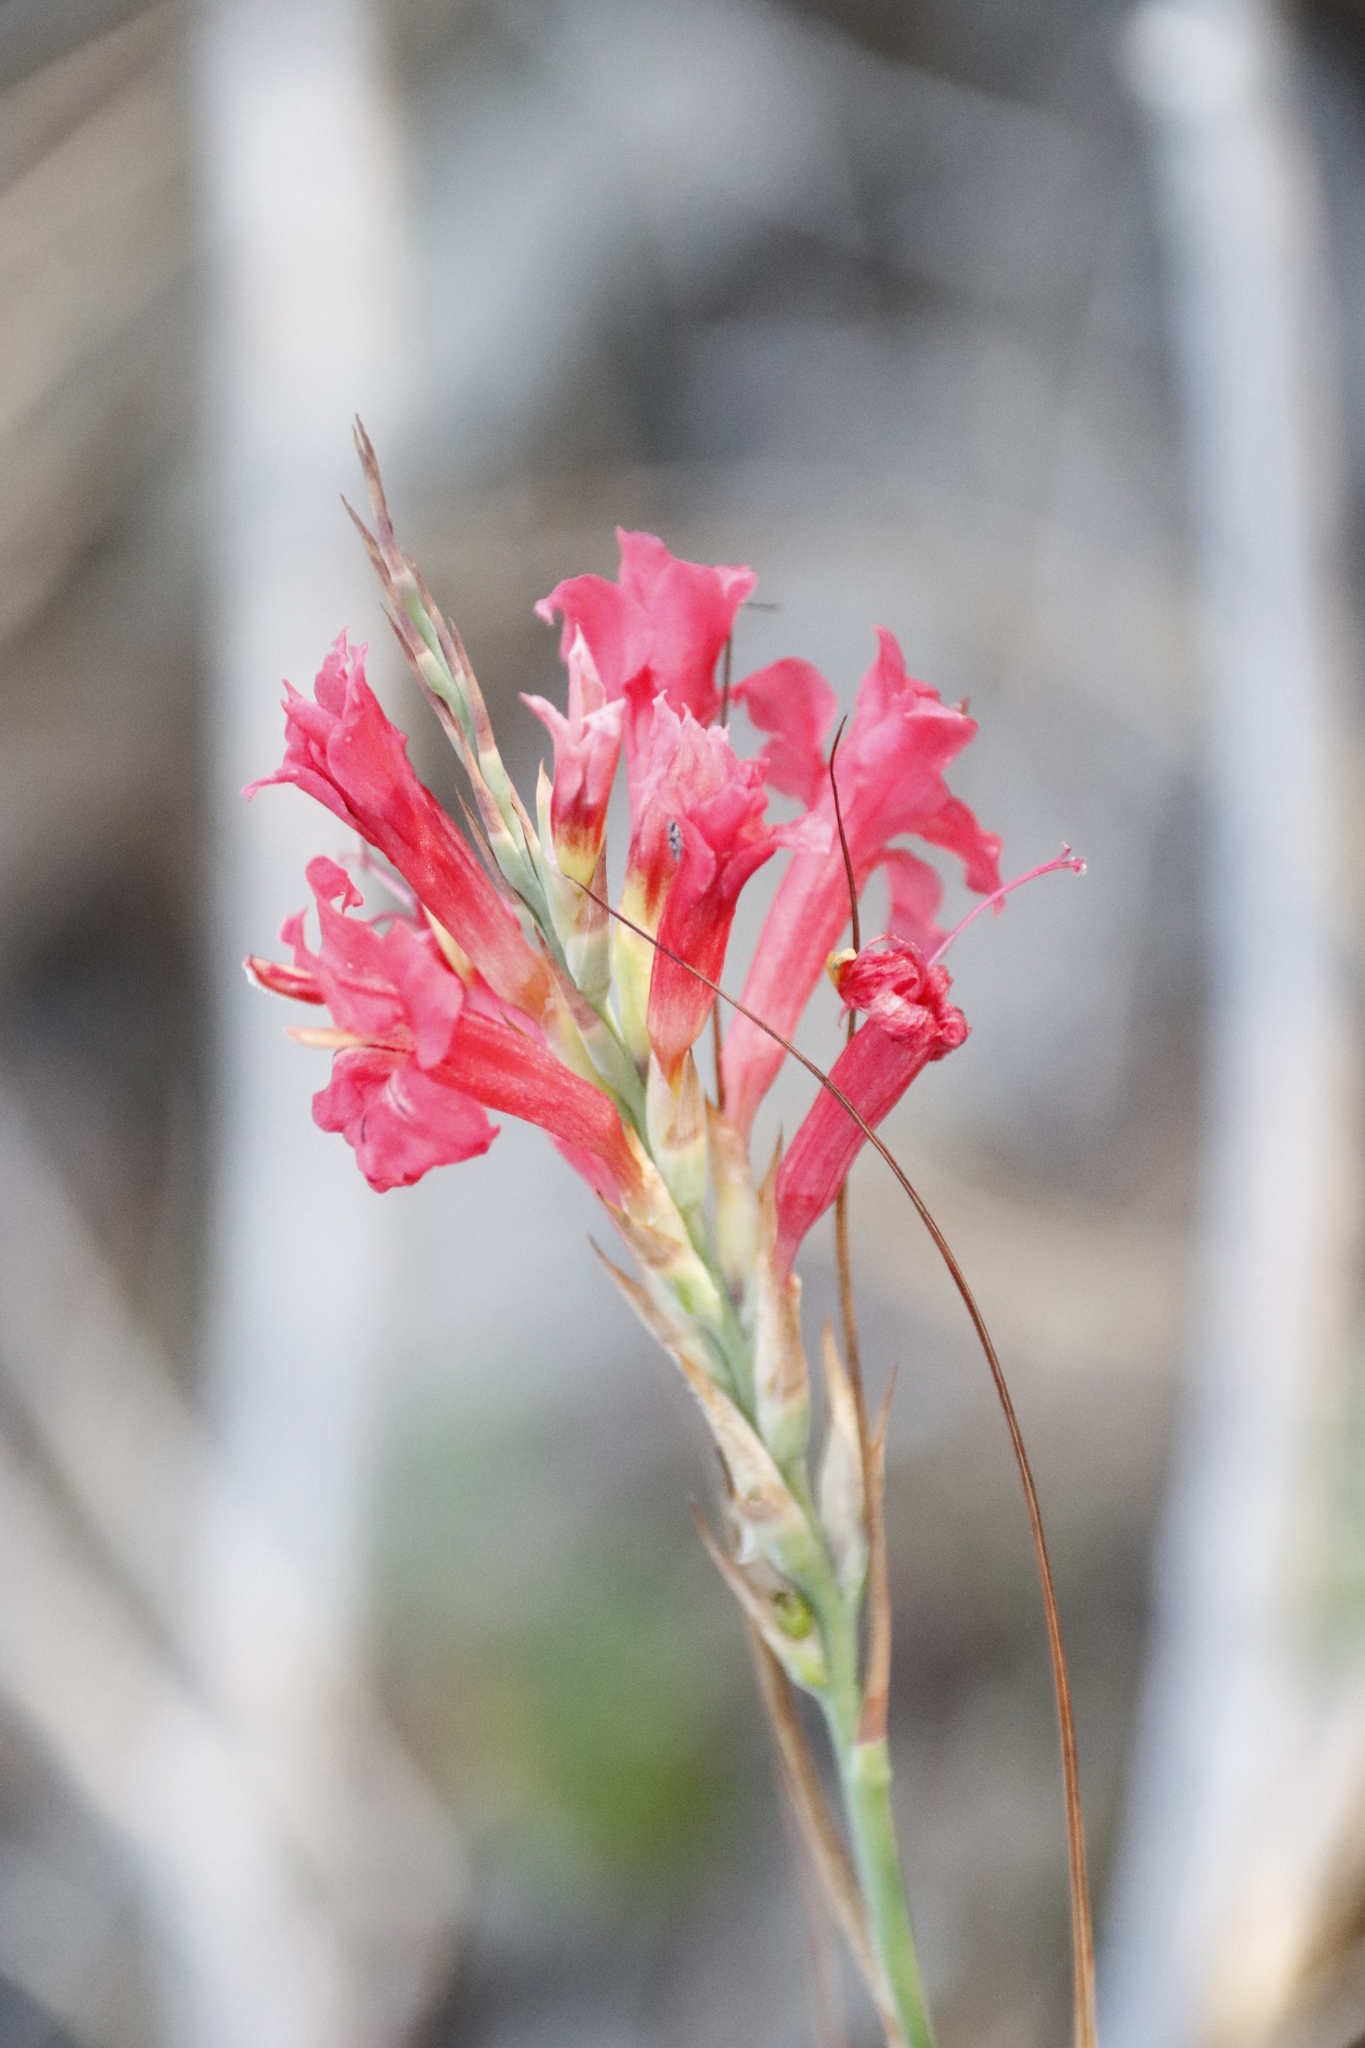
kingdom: Plantae
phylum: Tracheophyta
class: Liliopsida
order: Asparagales
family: Iridaceae
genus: Tritoniopsis
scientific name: Tritoniopsis triticea
